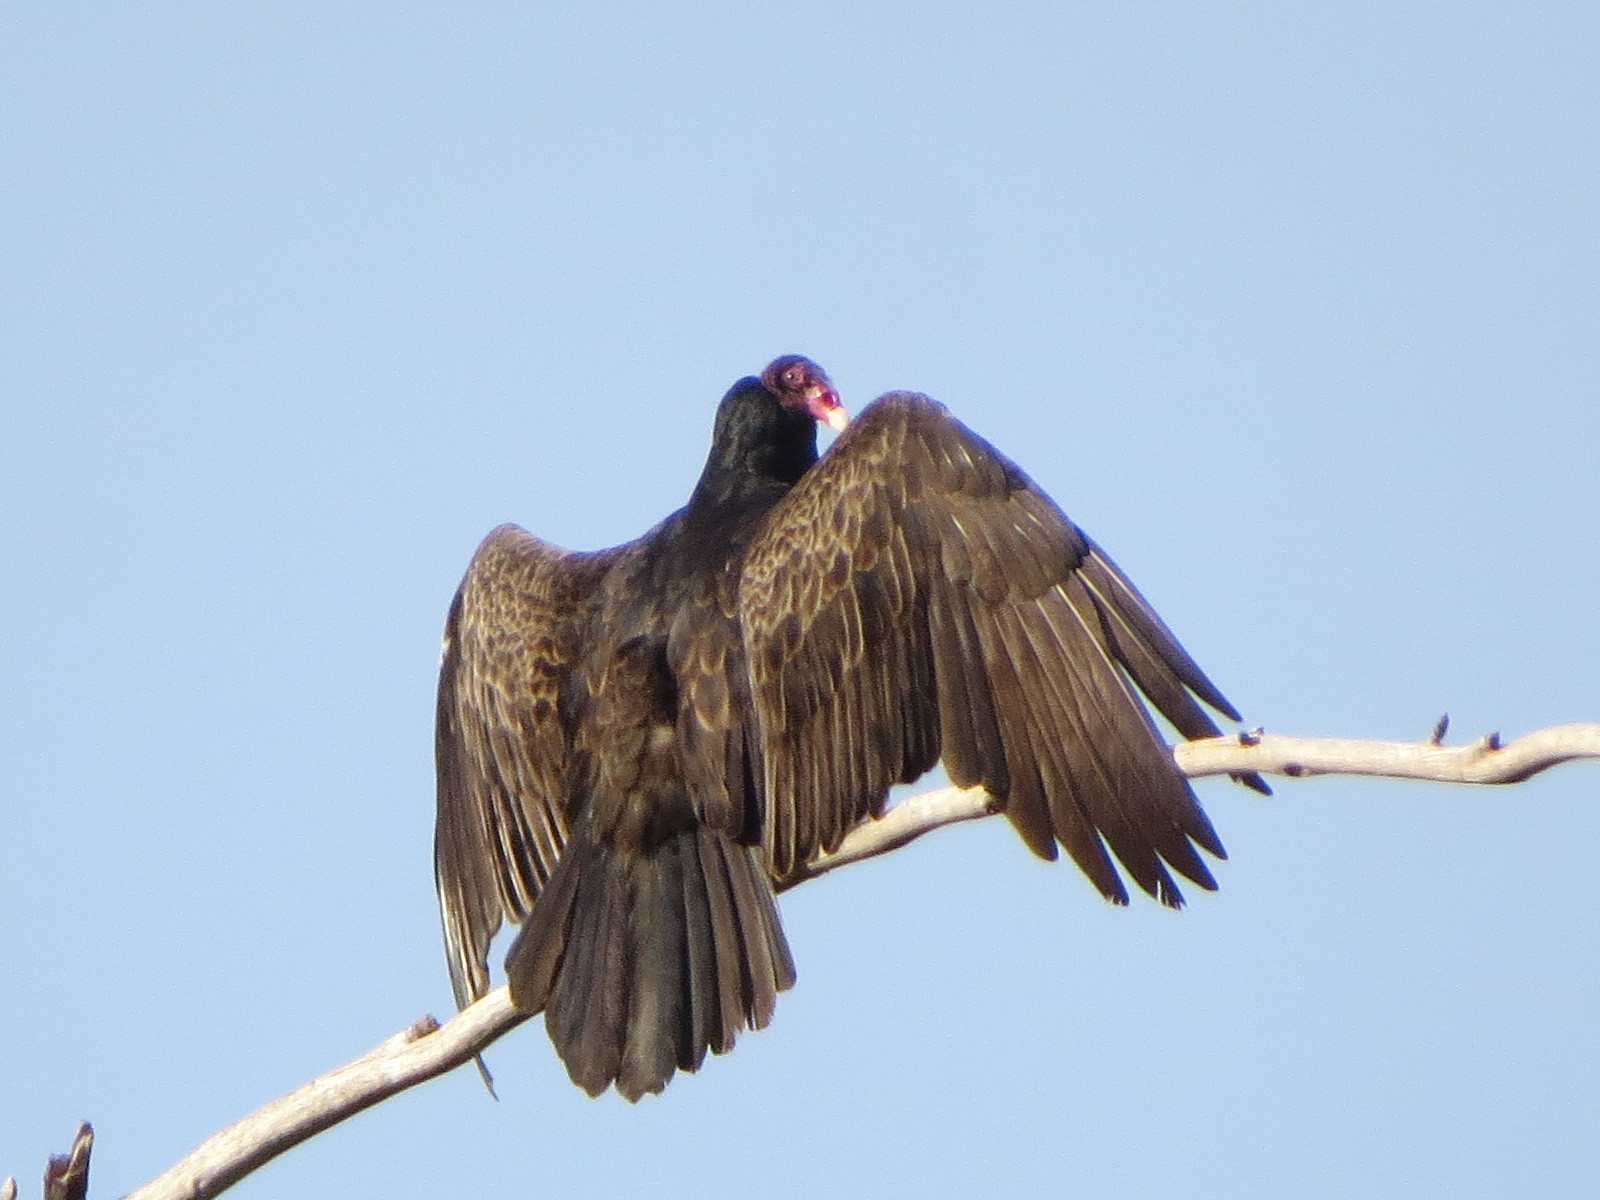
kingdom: Animalia
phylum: Chordata
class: Aves
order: Accipitriformes
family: Cathartidae
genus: Cathartes
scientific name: Cathartes aura
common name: Turkey vulture
